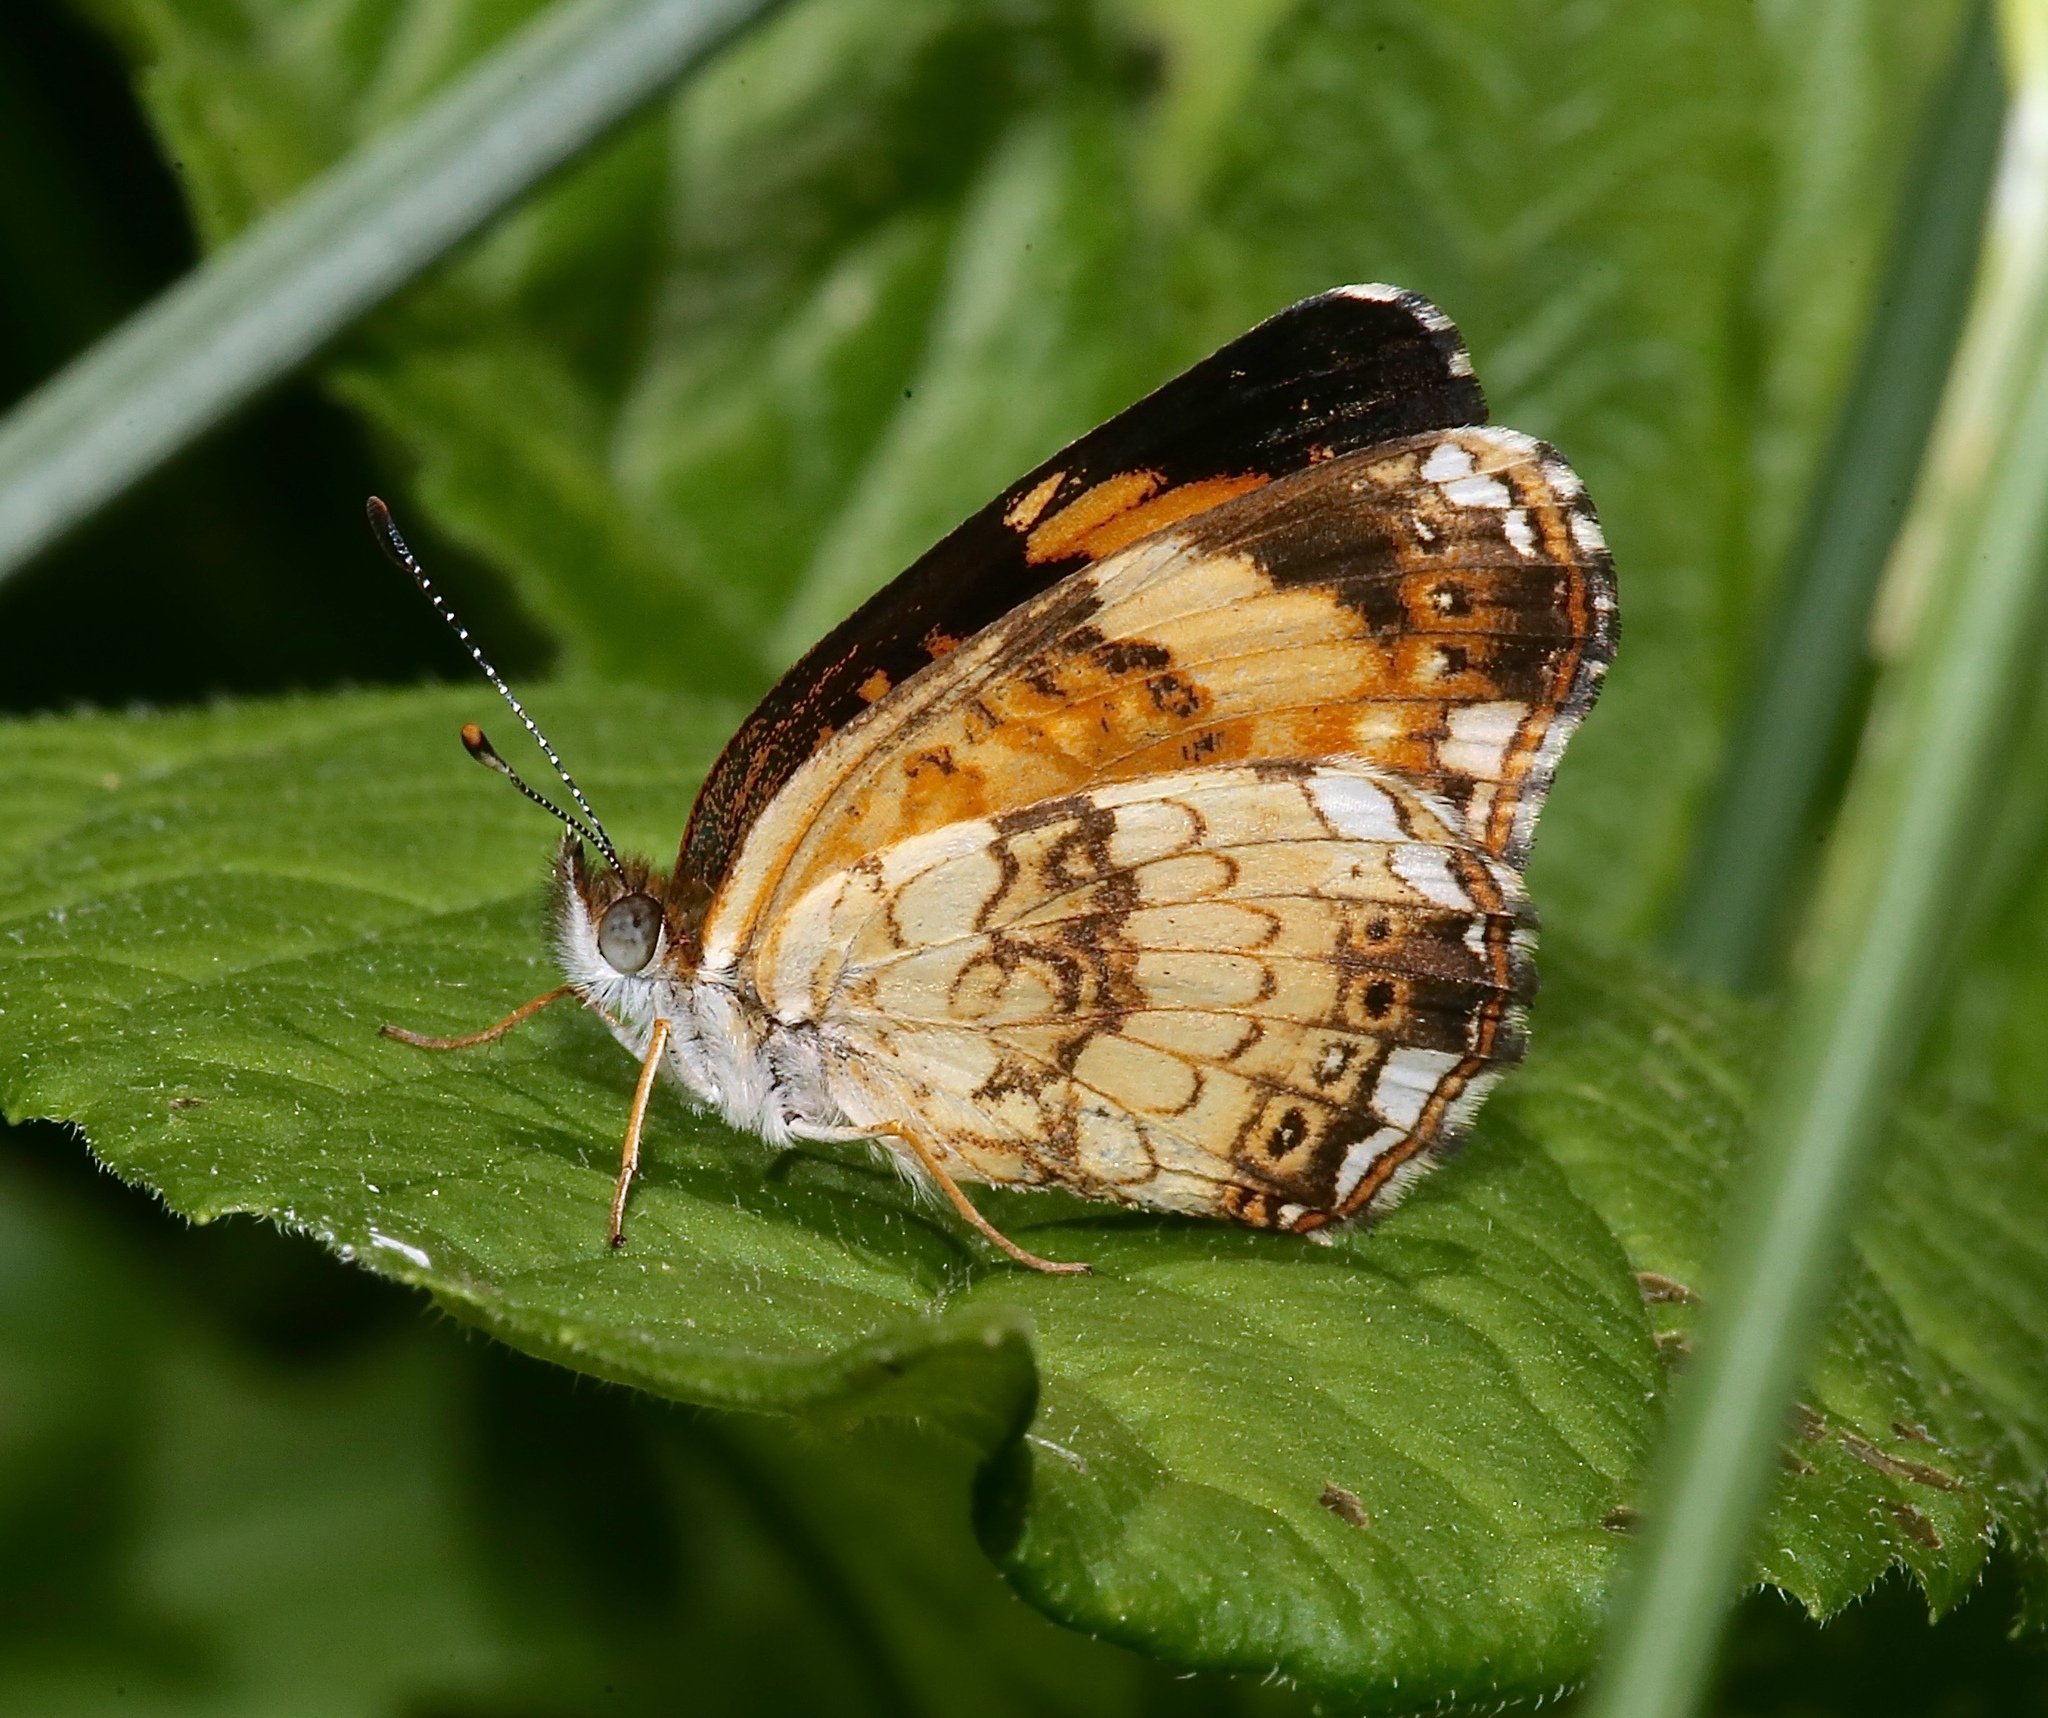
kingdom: Animalia
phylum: Arthropoda
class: Insecta
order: Lepidoptera
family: Nymphalidae
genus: Chlosyne
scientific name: Chlosyne nycteis
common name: Silvery checkerspot
